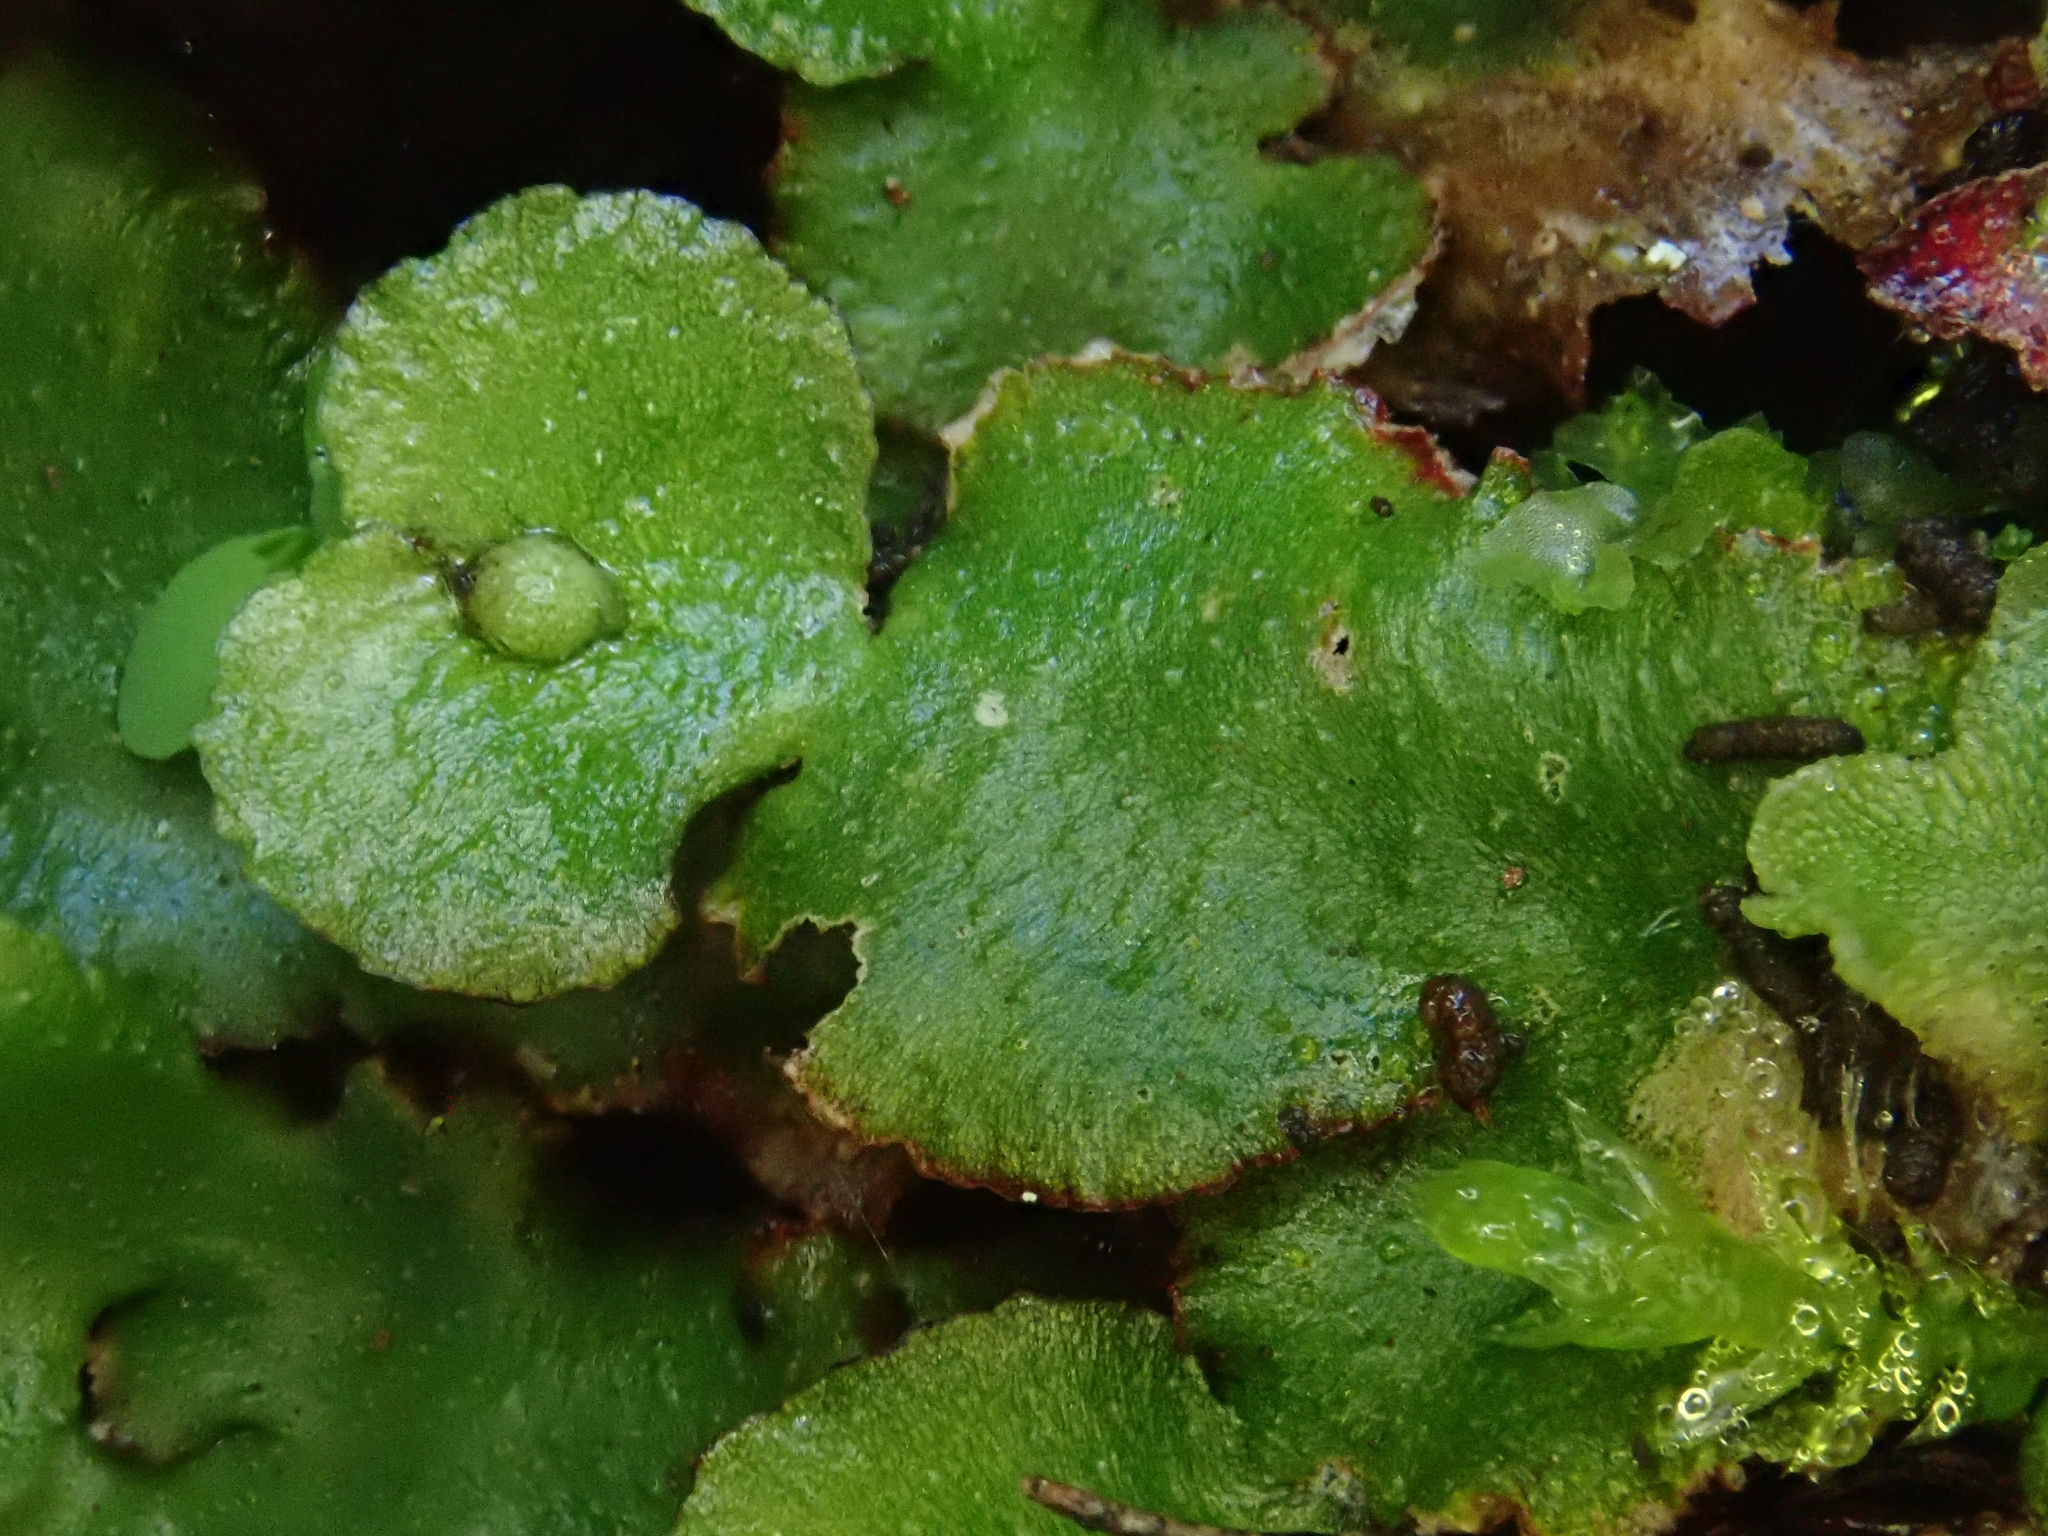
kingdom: Plantae
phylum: Marchantiophyta
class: Marchantiopsida
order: Marchantiales
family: Aytoniaceae
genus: Reboulia
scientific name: Reboulia hemisphaerica
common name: Purple-margined liverwort
